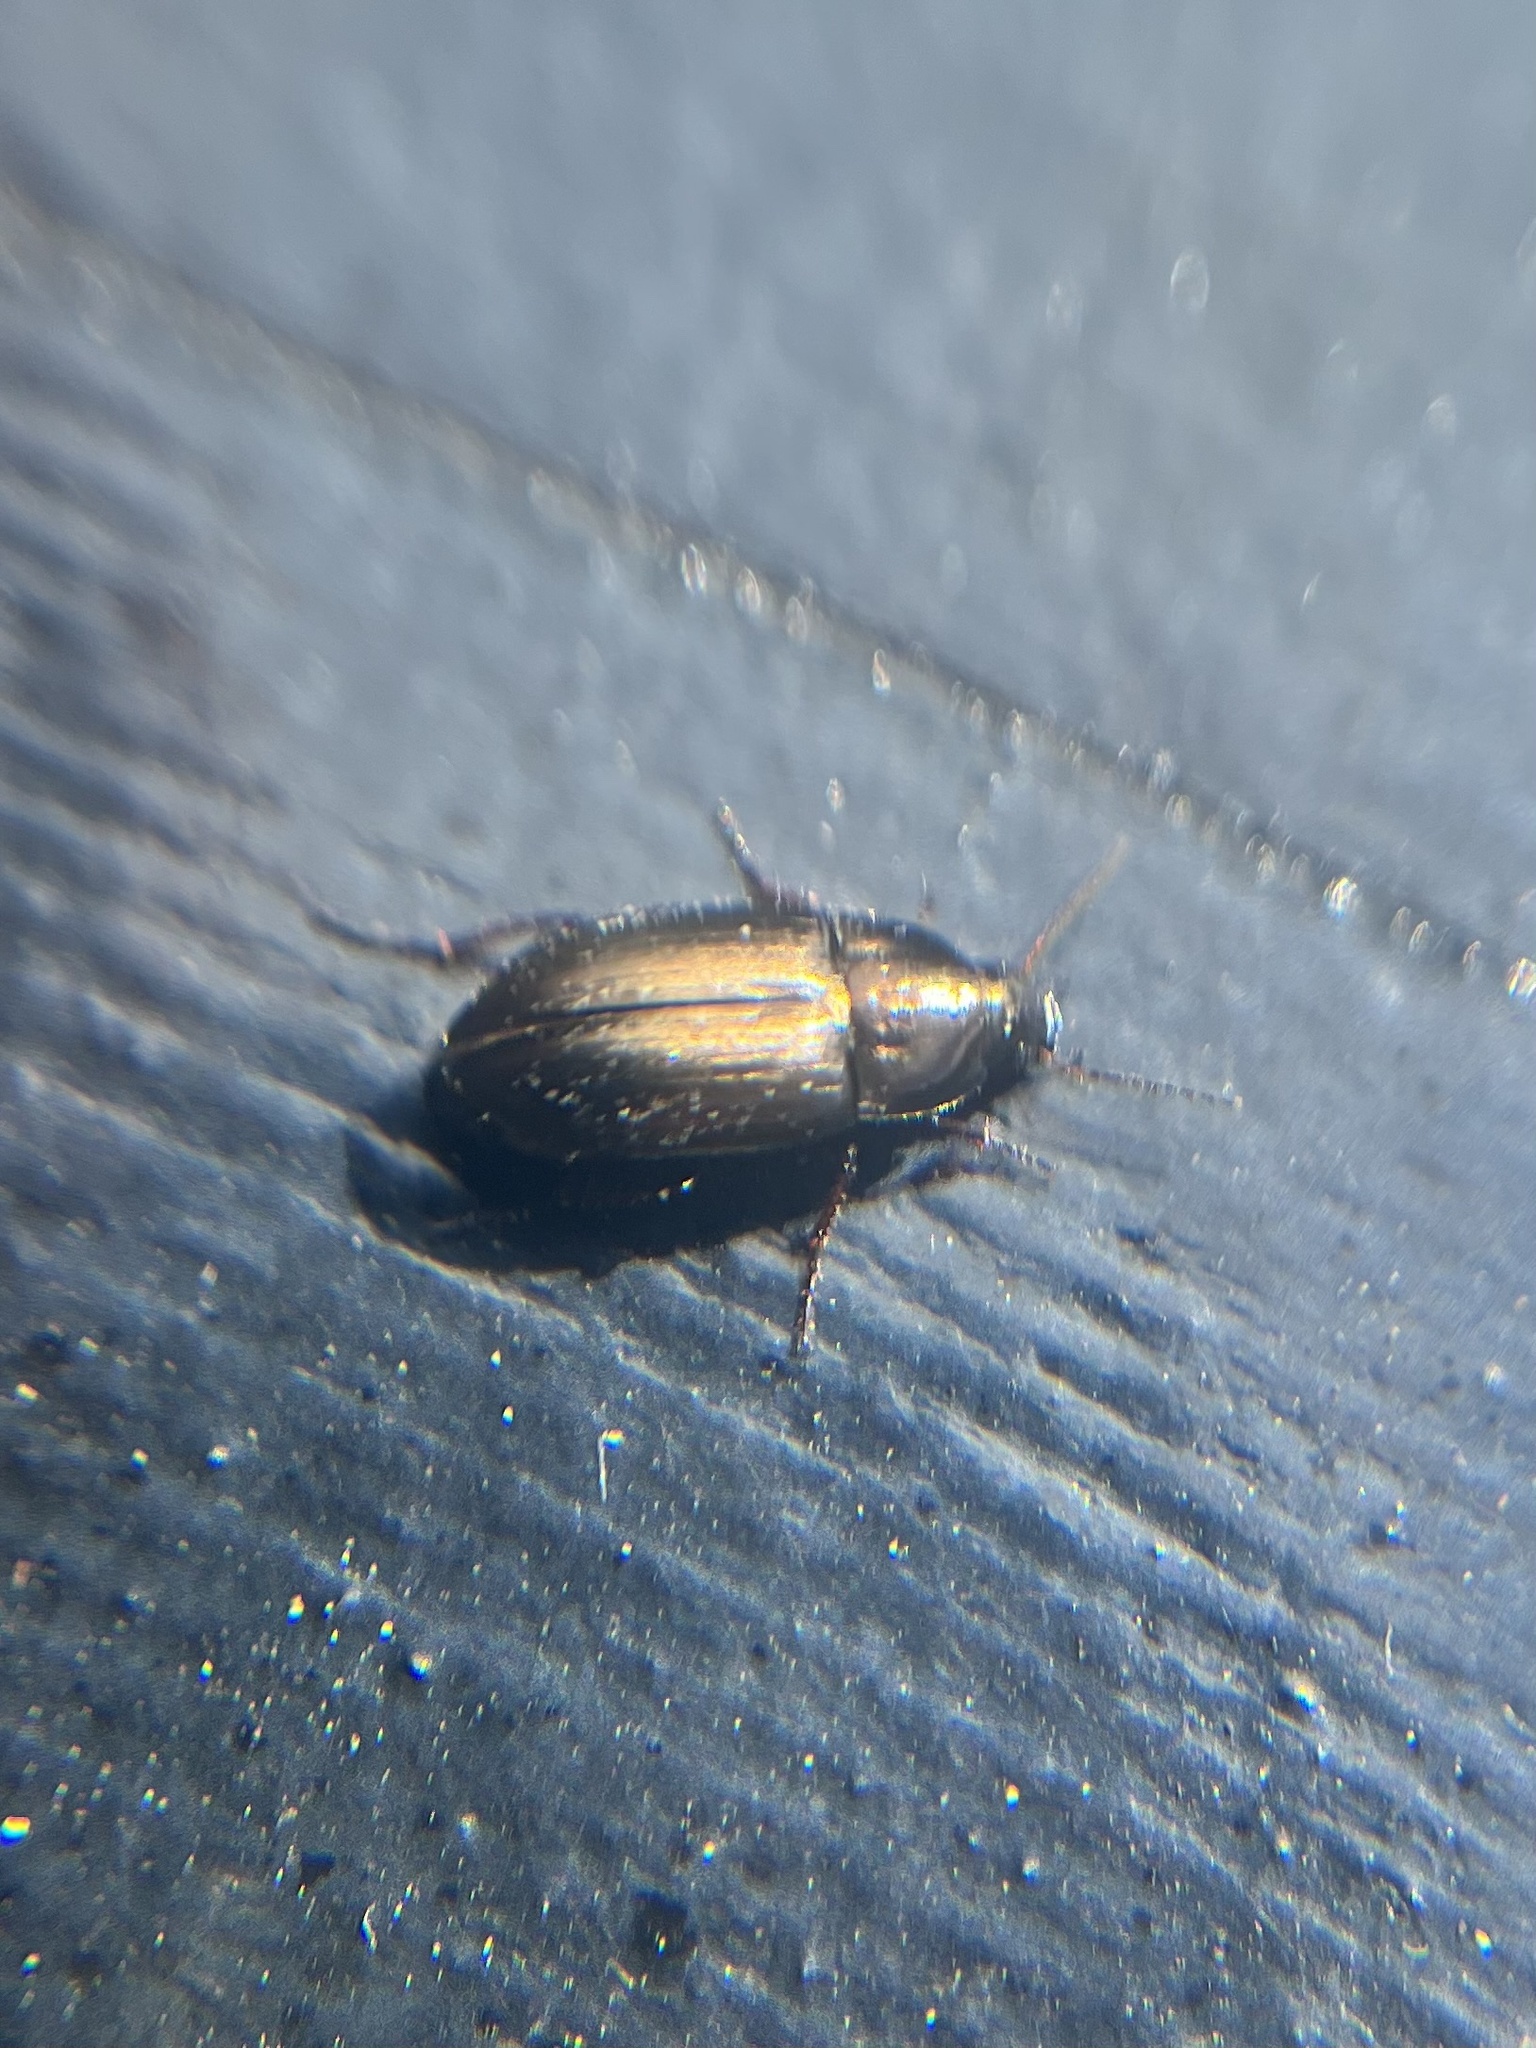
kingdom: Animalia
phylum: Arthropoda
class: Insecta
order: Coleoptera
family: Carabidae
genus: Amara
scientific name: Amara
